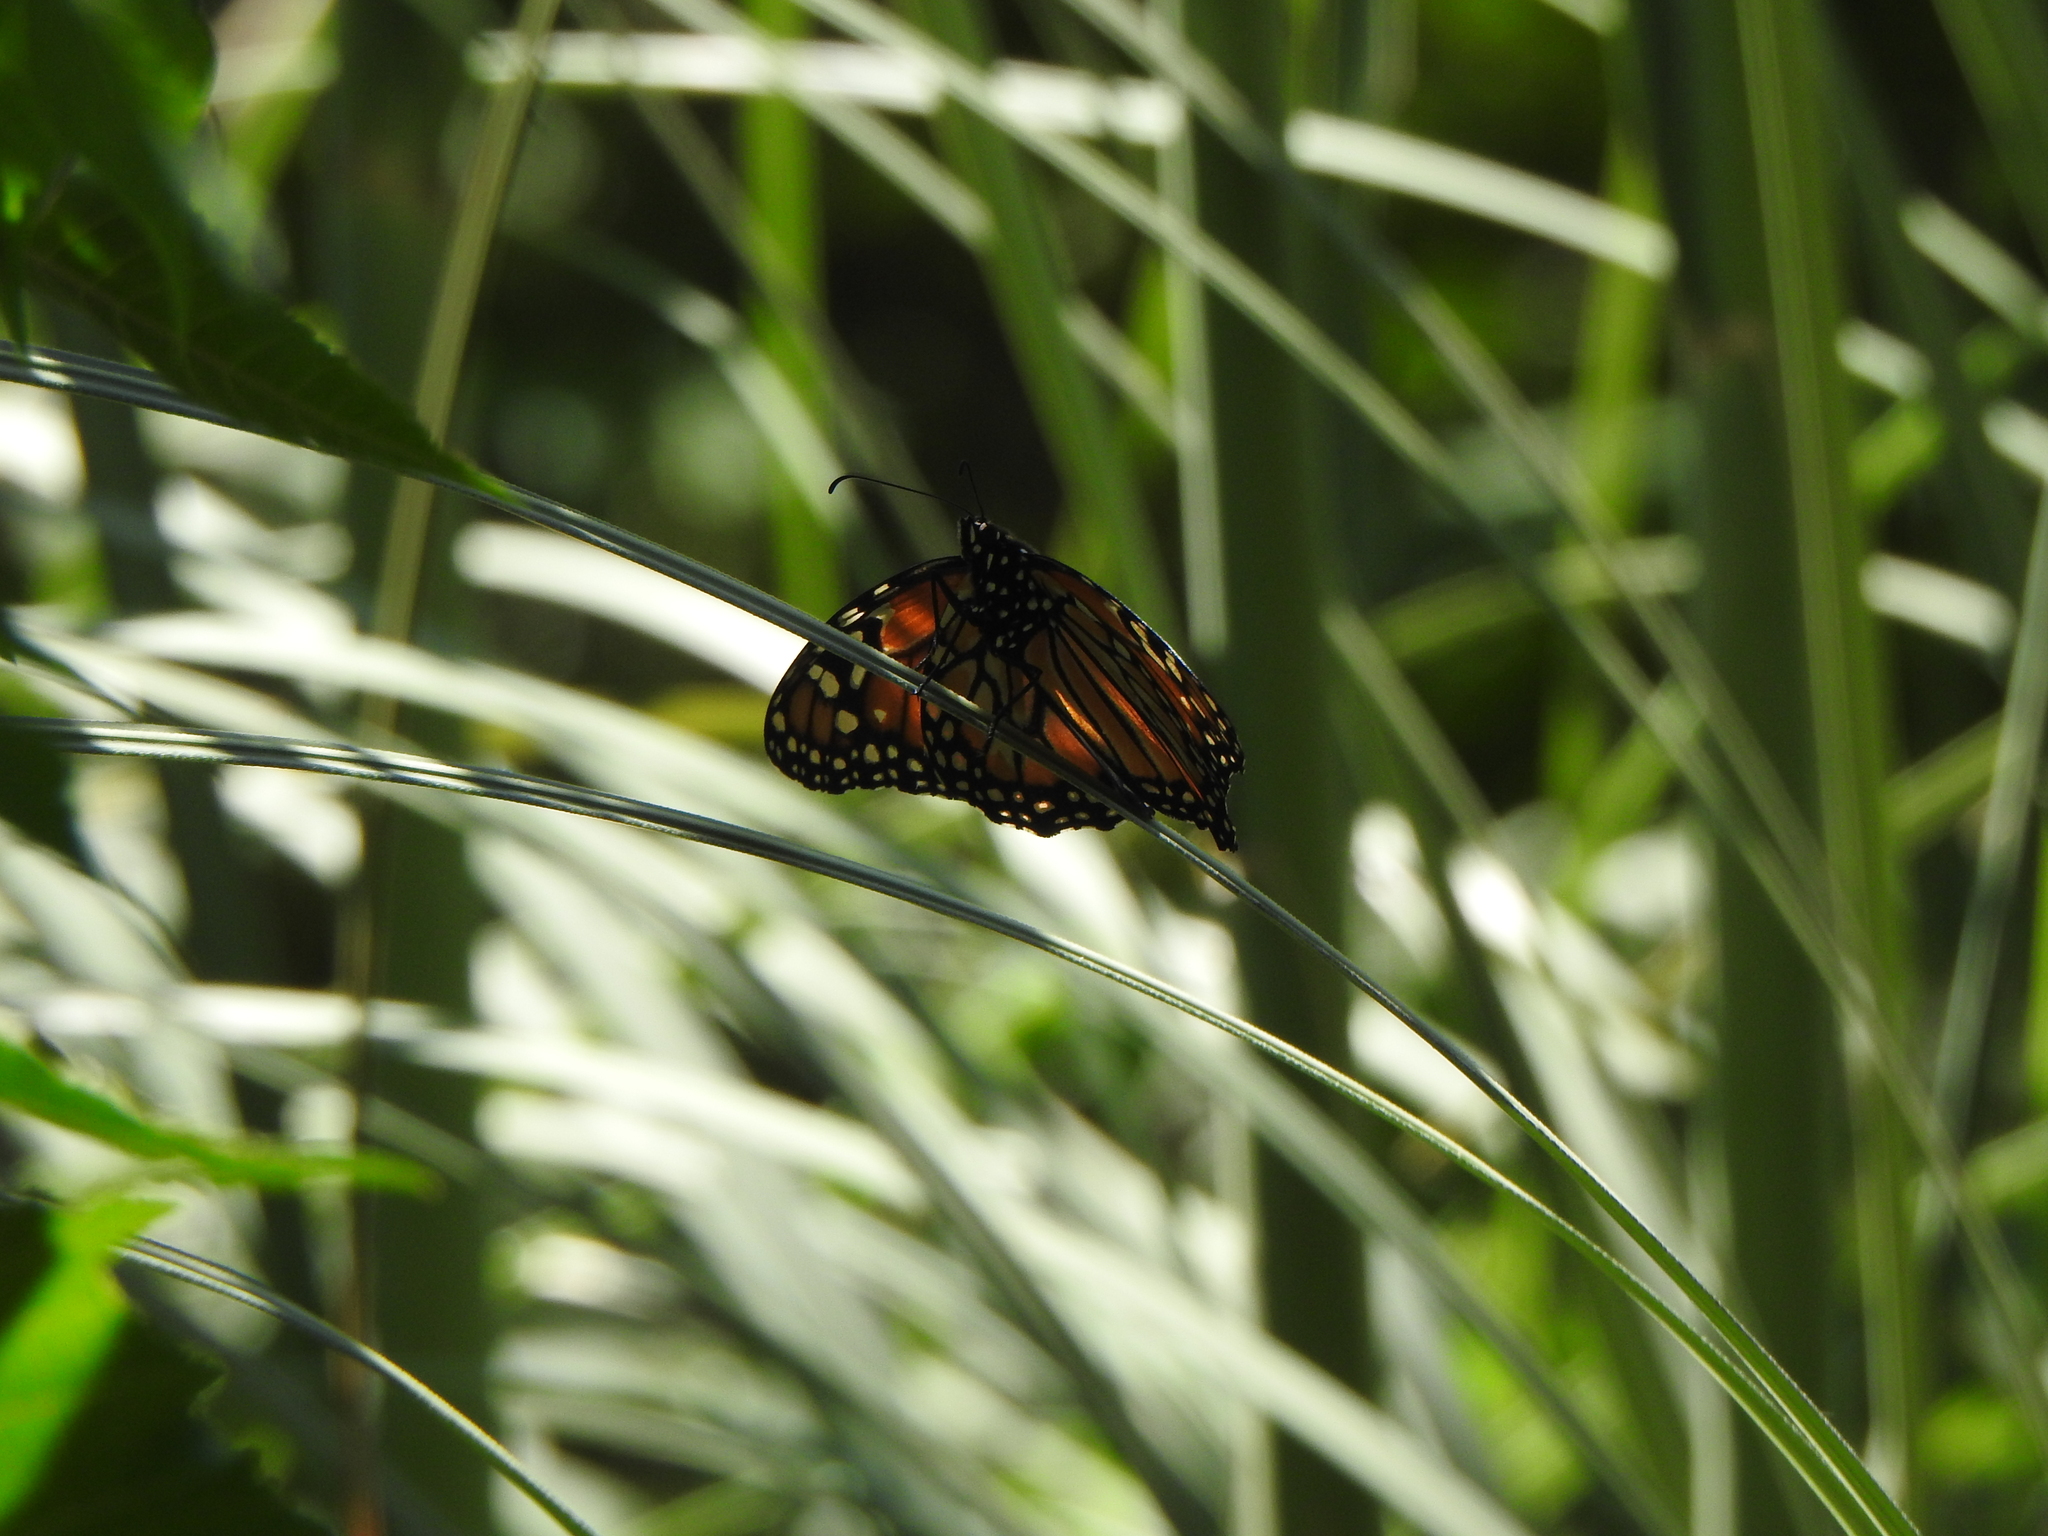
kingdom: Animalia
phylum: Arthropoda
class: Insecta
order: Lepidoptera
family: Nymphalidae
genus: Danaus
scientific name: Danaus erippus
